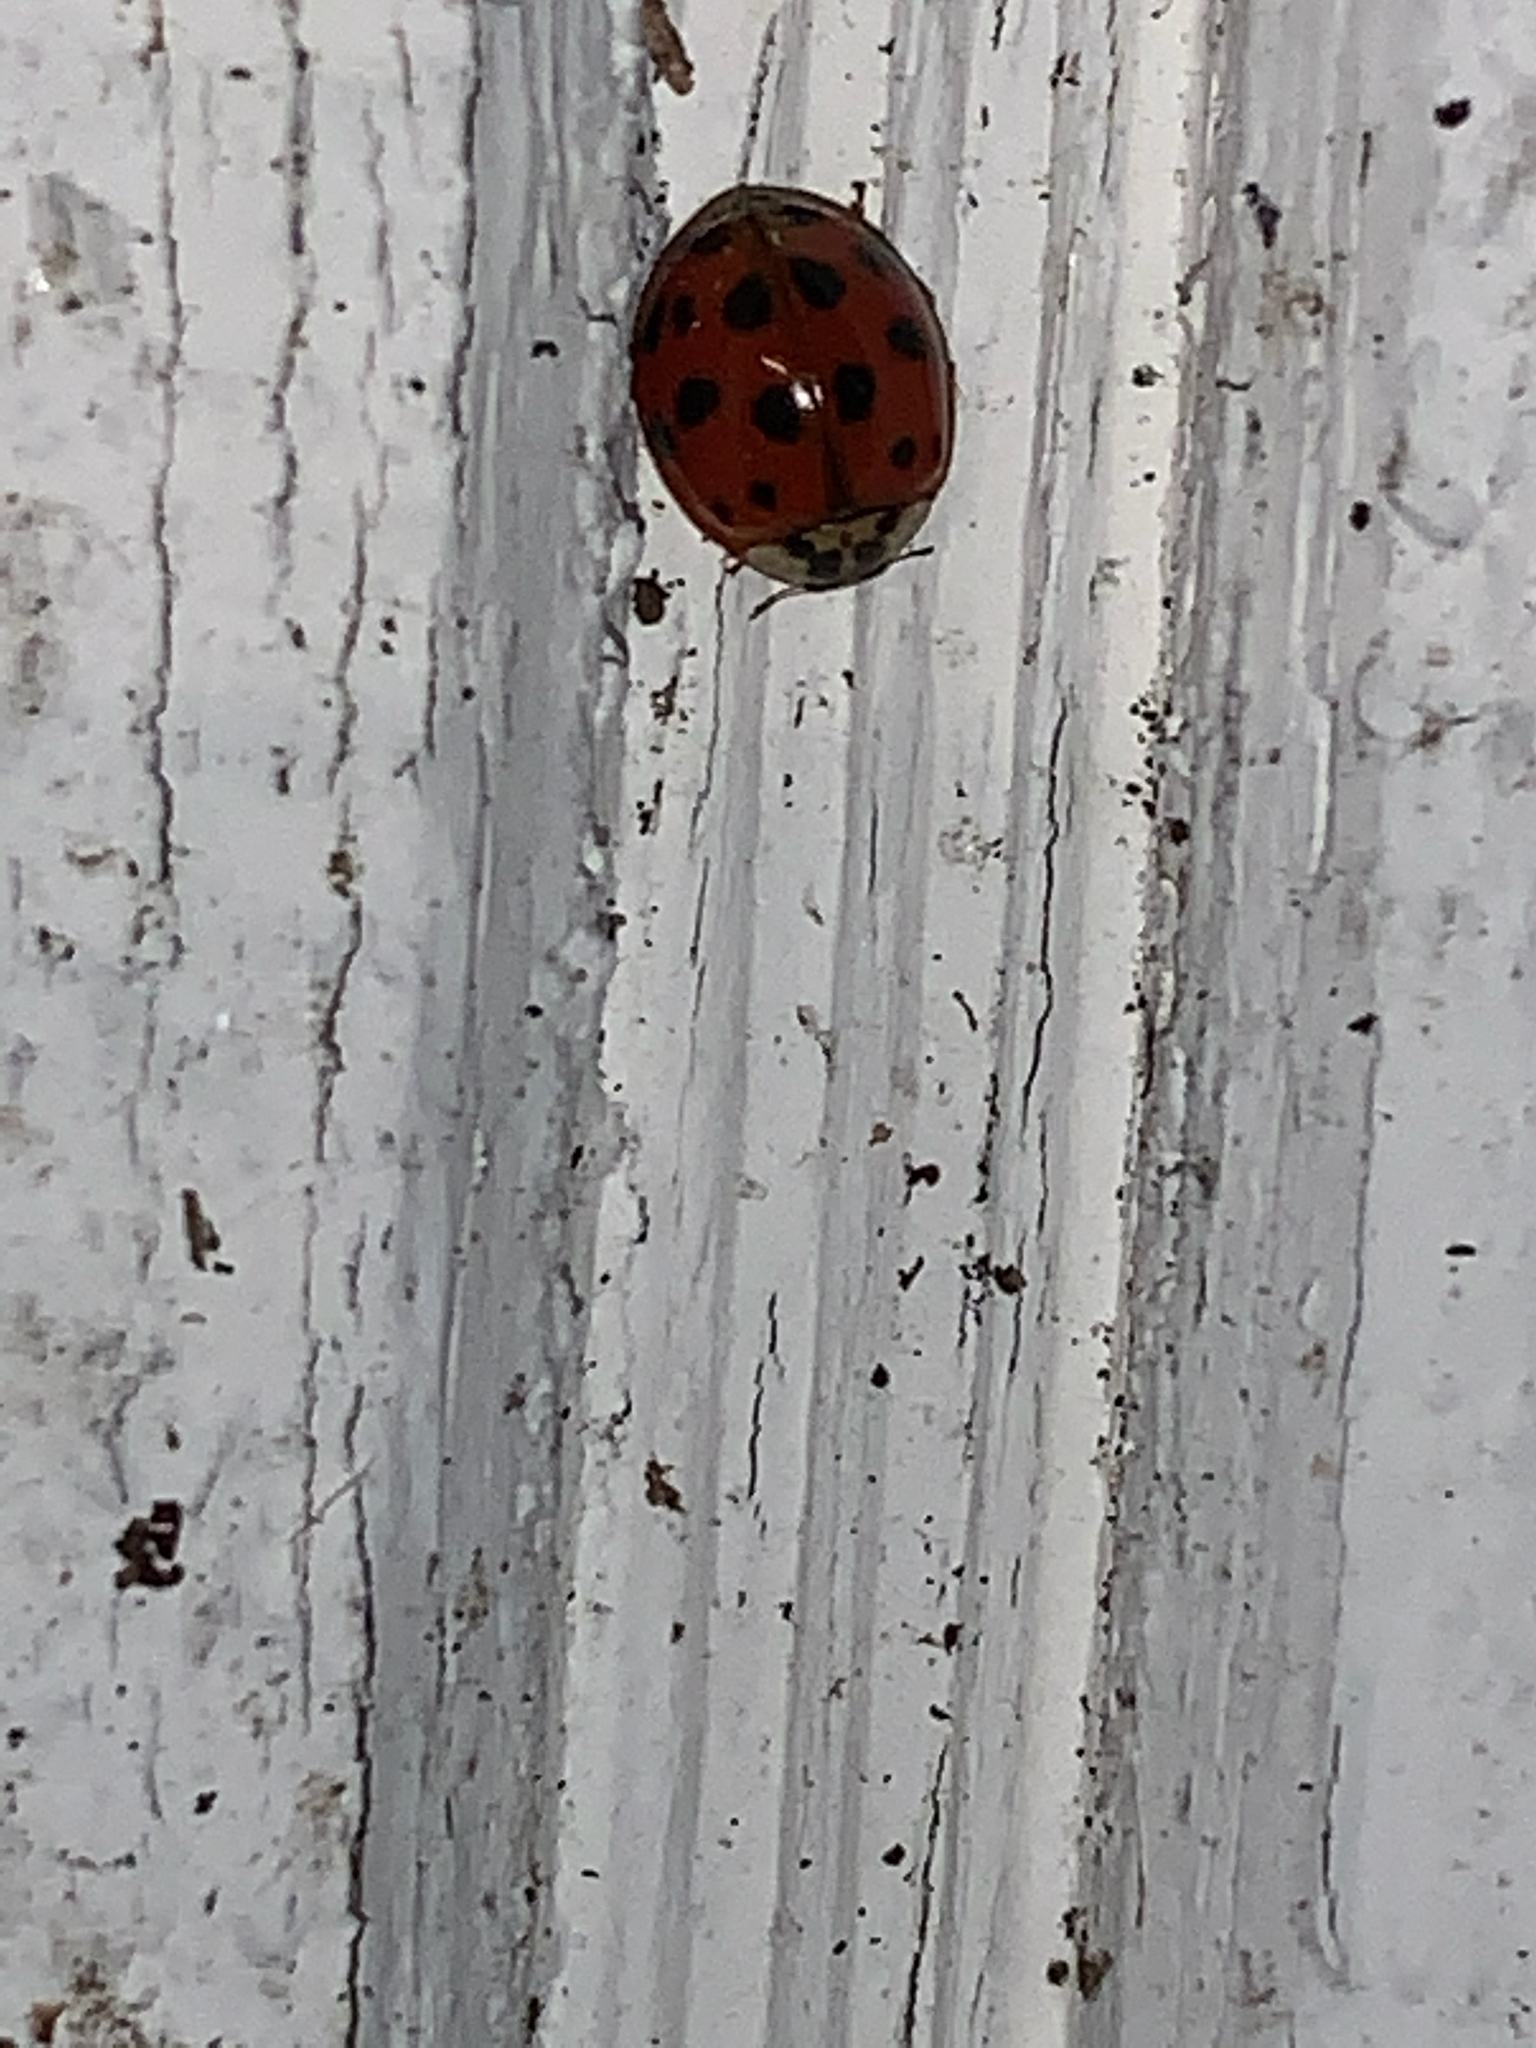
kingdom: Animalia
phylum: Arthropoda
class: Insecta
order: Coleoptera
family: Coccinellidae
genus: Harmonia
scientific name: Harmonia axyridis
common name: Harlequin ladybird
